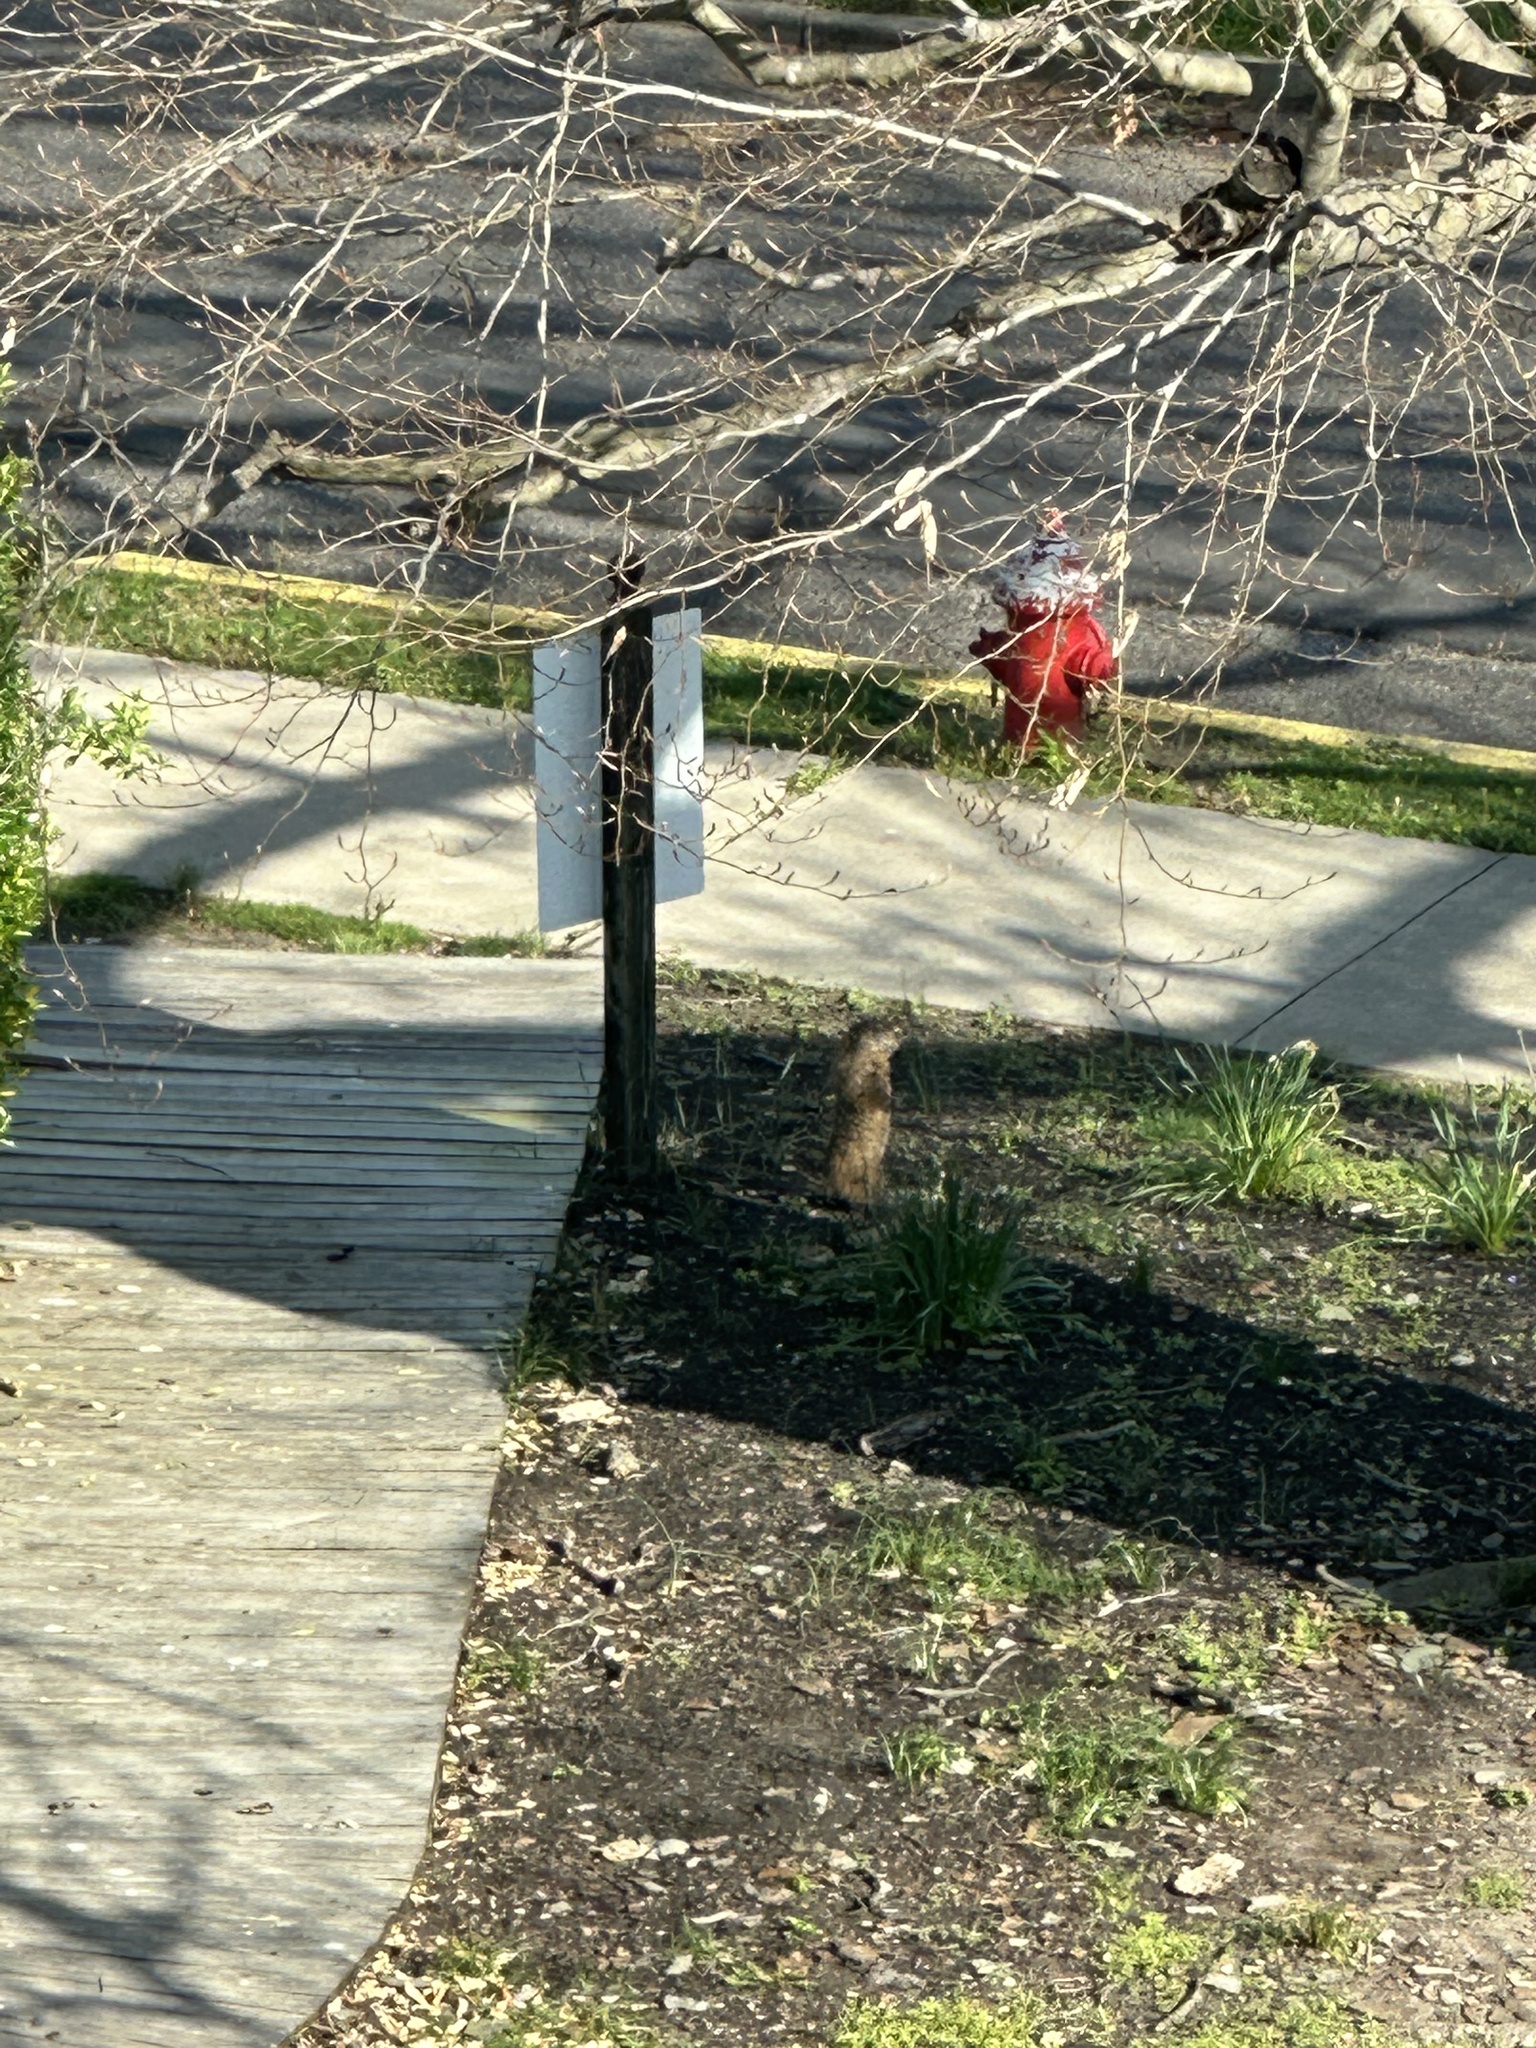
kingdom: Animalia
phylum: Chordata
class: Mammalia
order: Rodentia
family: Sciuridae
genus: Marmota
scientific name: Marmota monax
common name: Groundhog
